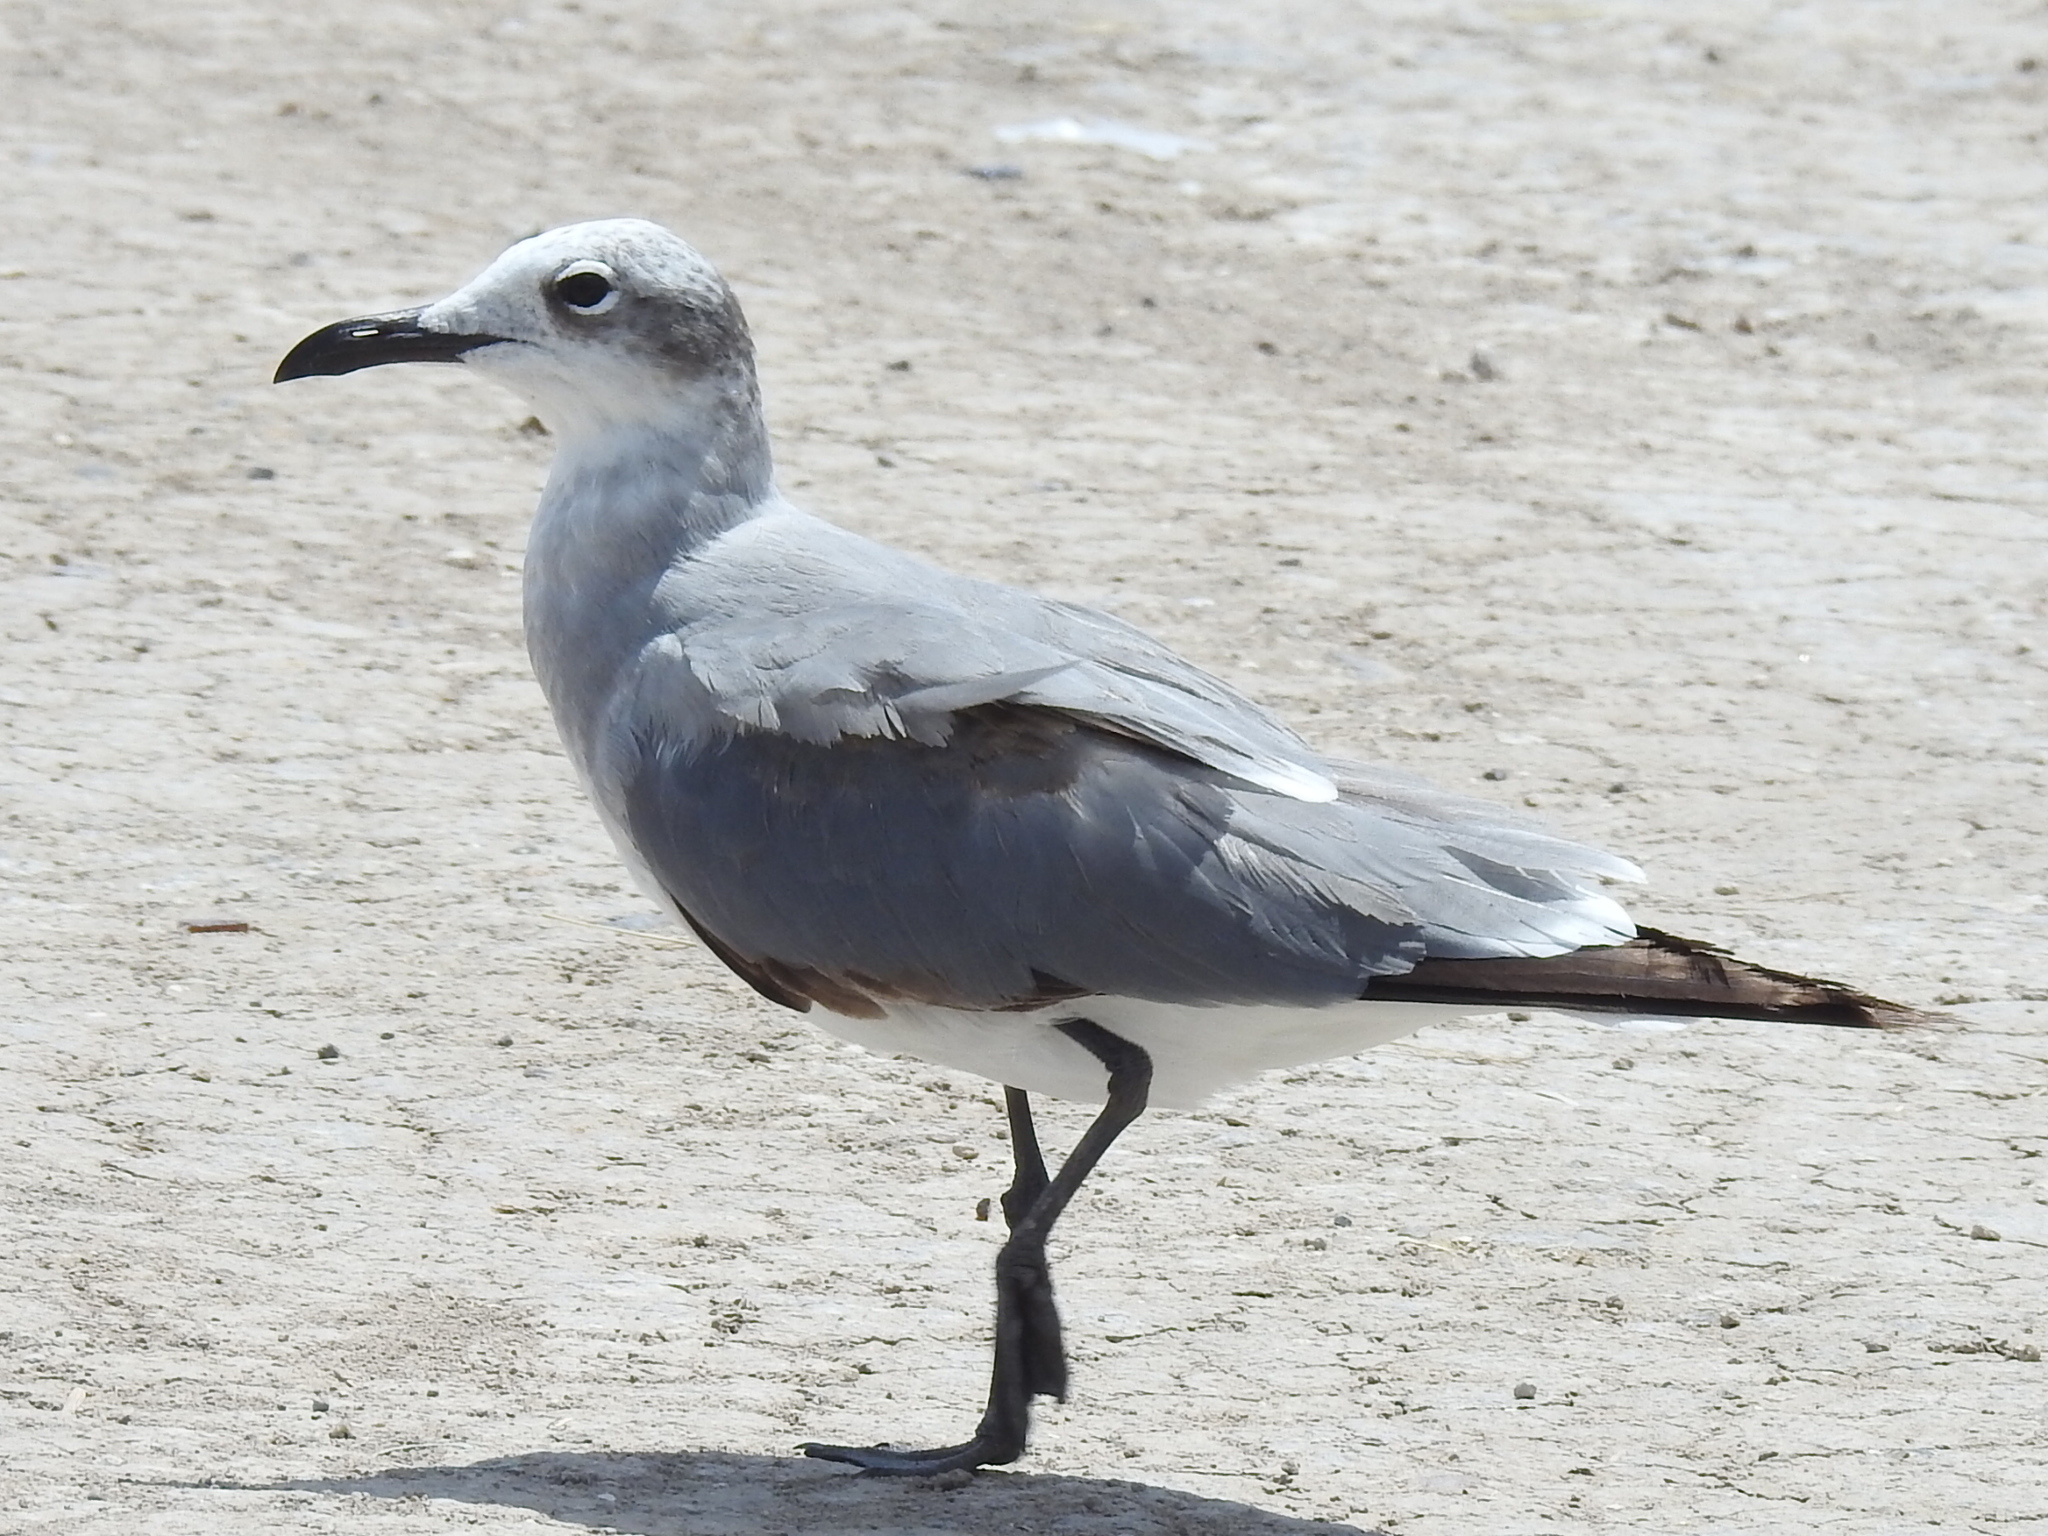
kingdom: Animalia
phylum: Chordata
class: Aves
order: Charadriiformes
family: Laridae
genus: Leucophaeus
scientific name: Leucophaeus atricilla
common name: Laughing gull
